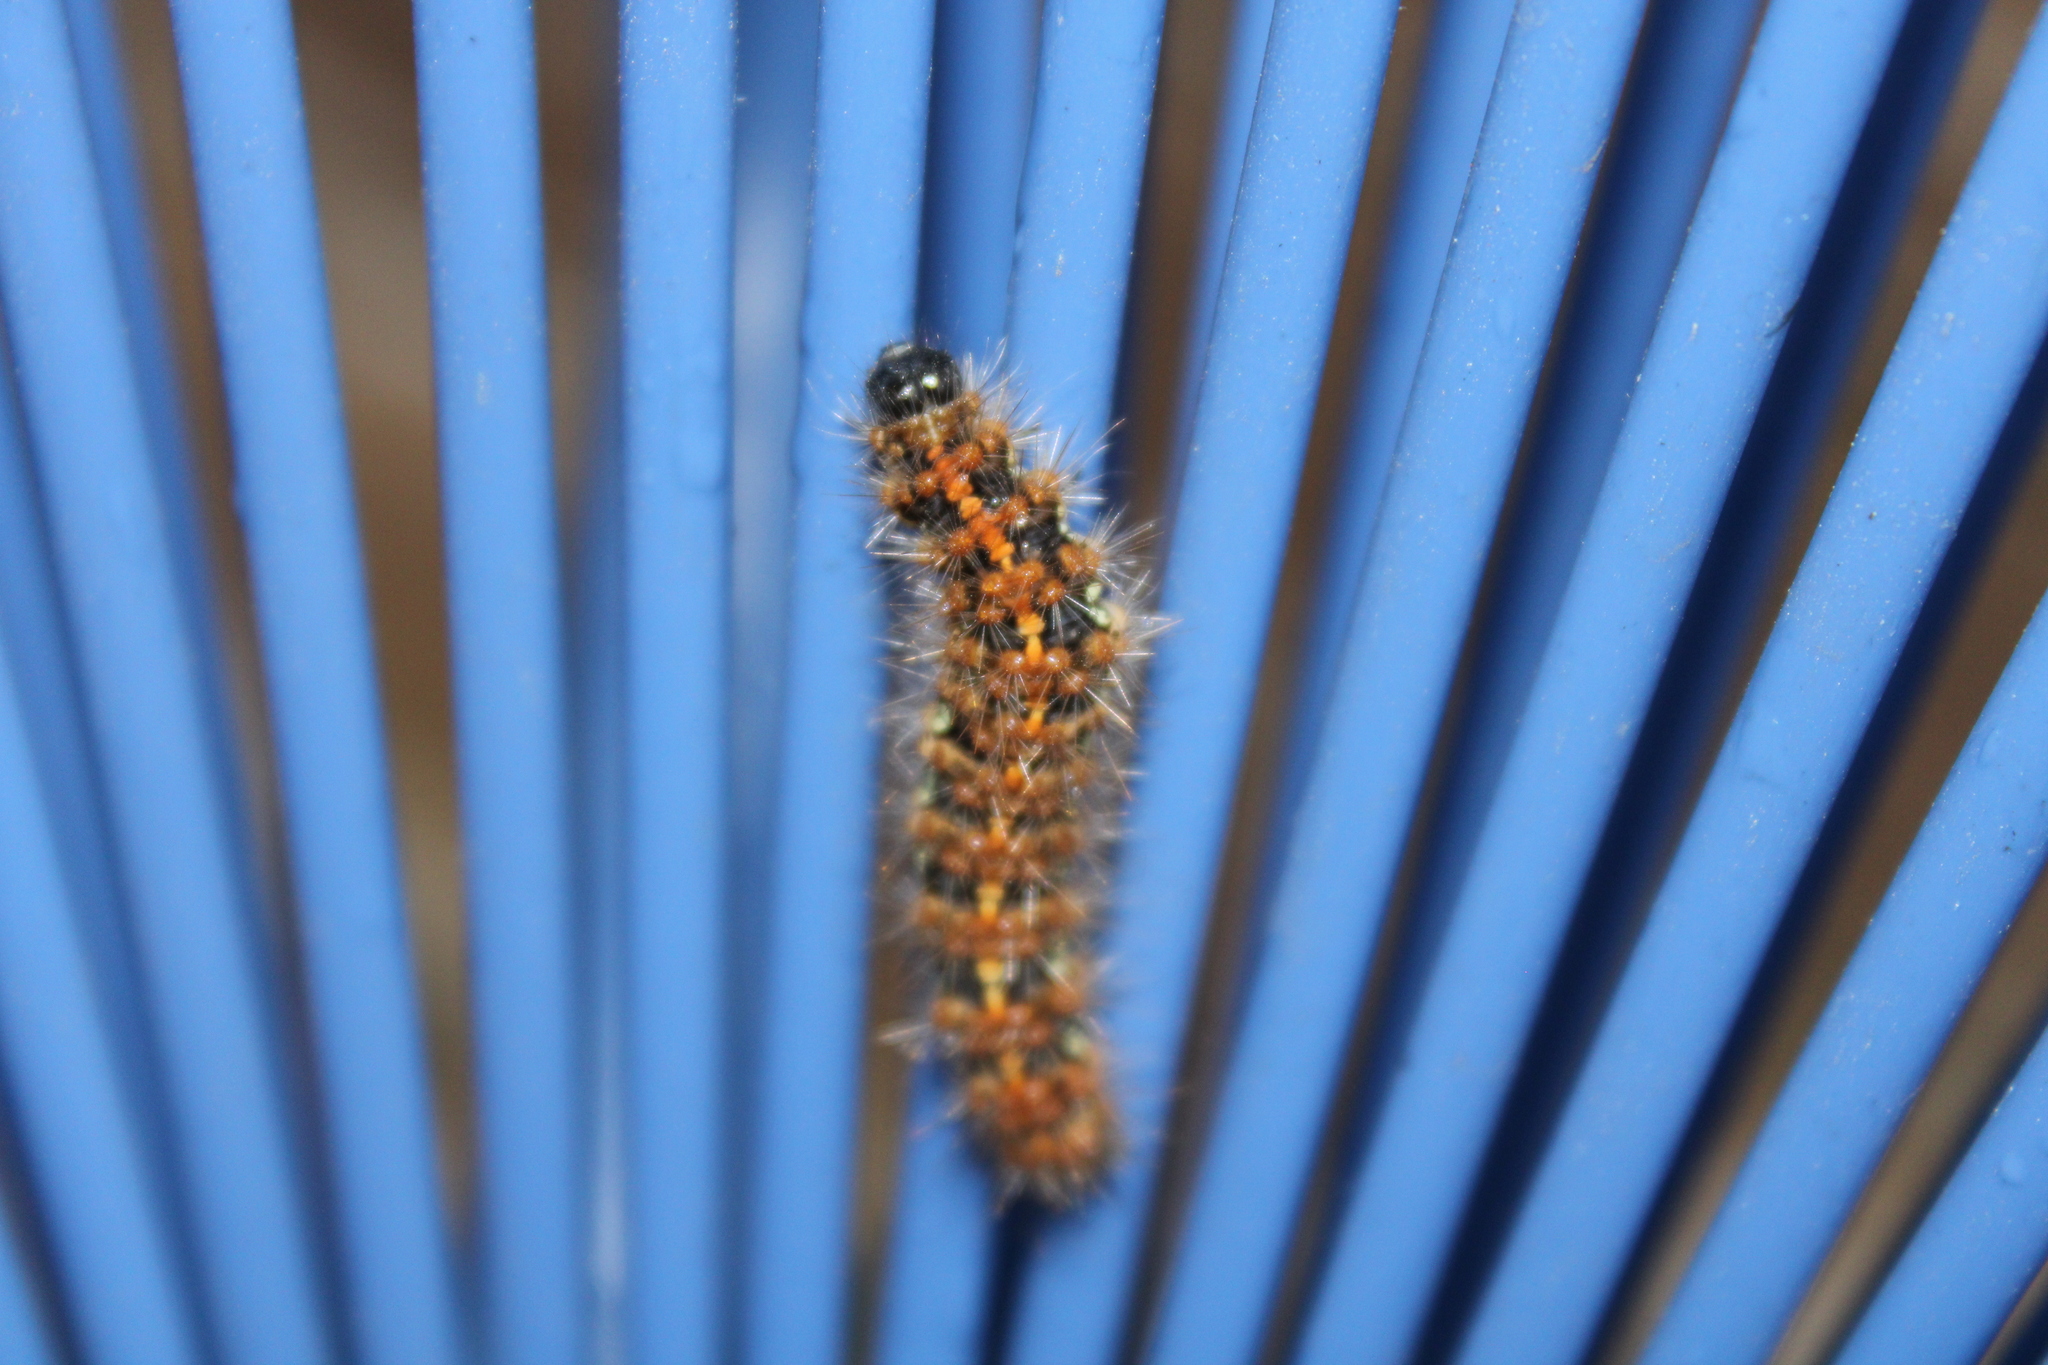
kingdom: Animalia
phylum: Arthropoda
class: Insecta
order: Lepidoptera
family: Erebidae
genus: Euplagia
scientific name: Euplagia quadripunctaria
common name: Jersey tiger
